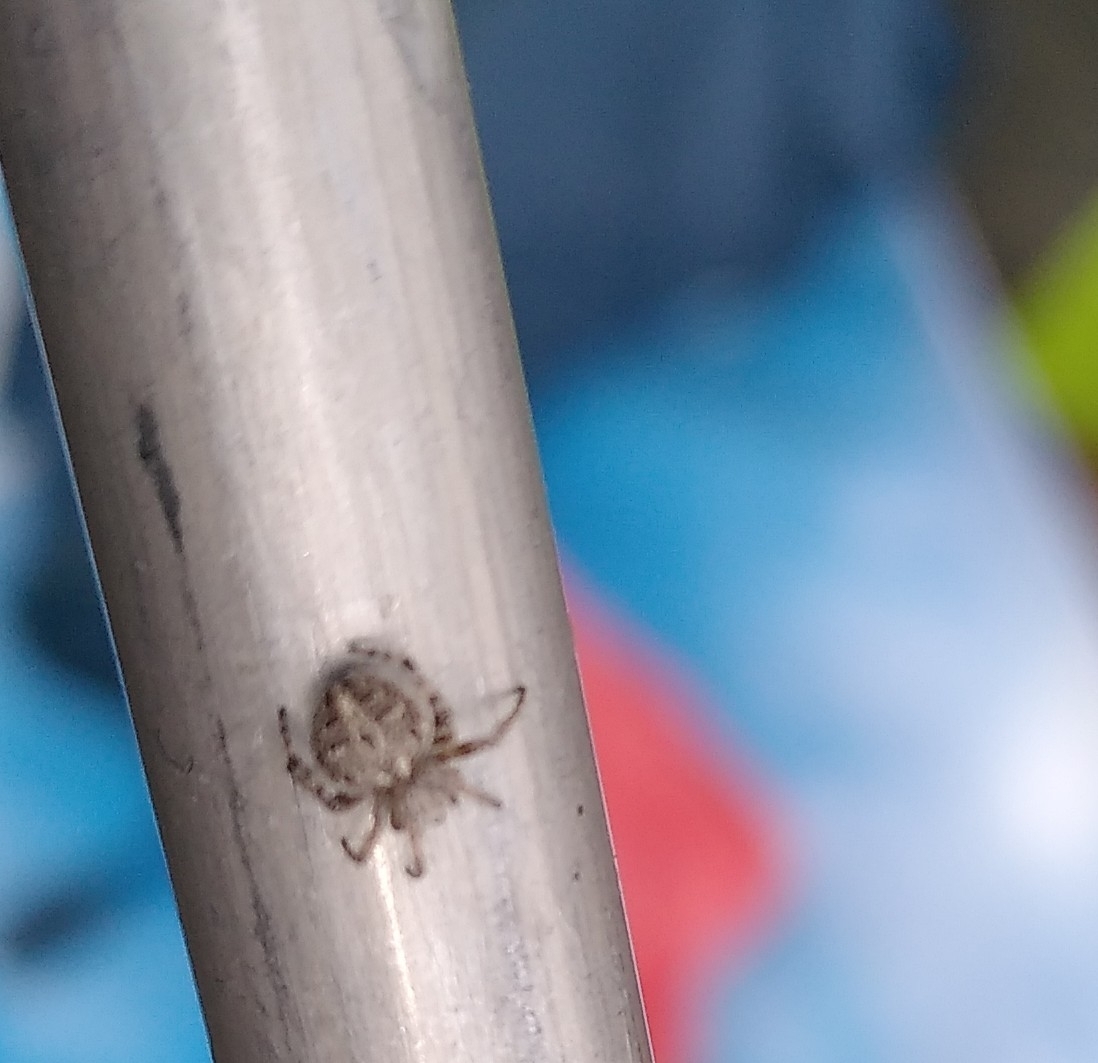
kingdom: Animalia
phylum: Arthropoda
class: Arachnida
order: Araneae
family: Araneidae
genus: Agalenatea
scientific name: Agalenatea redii
